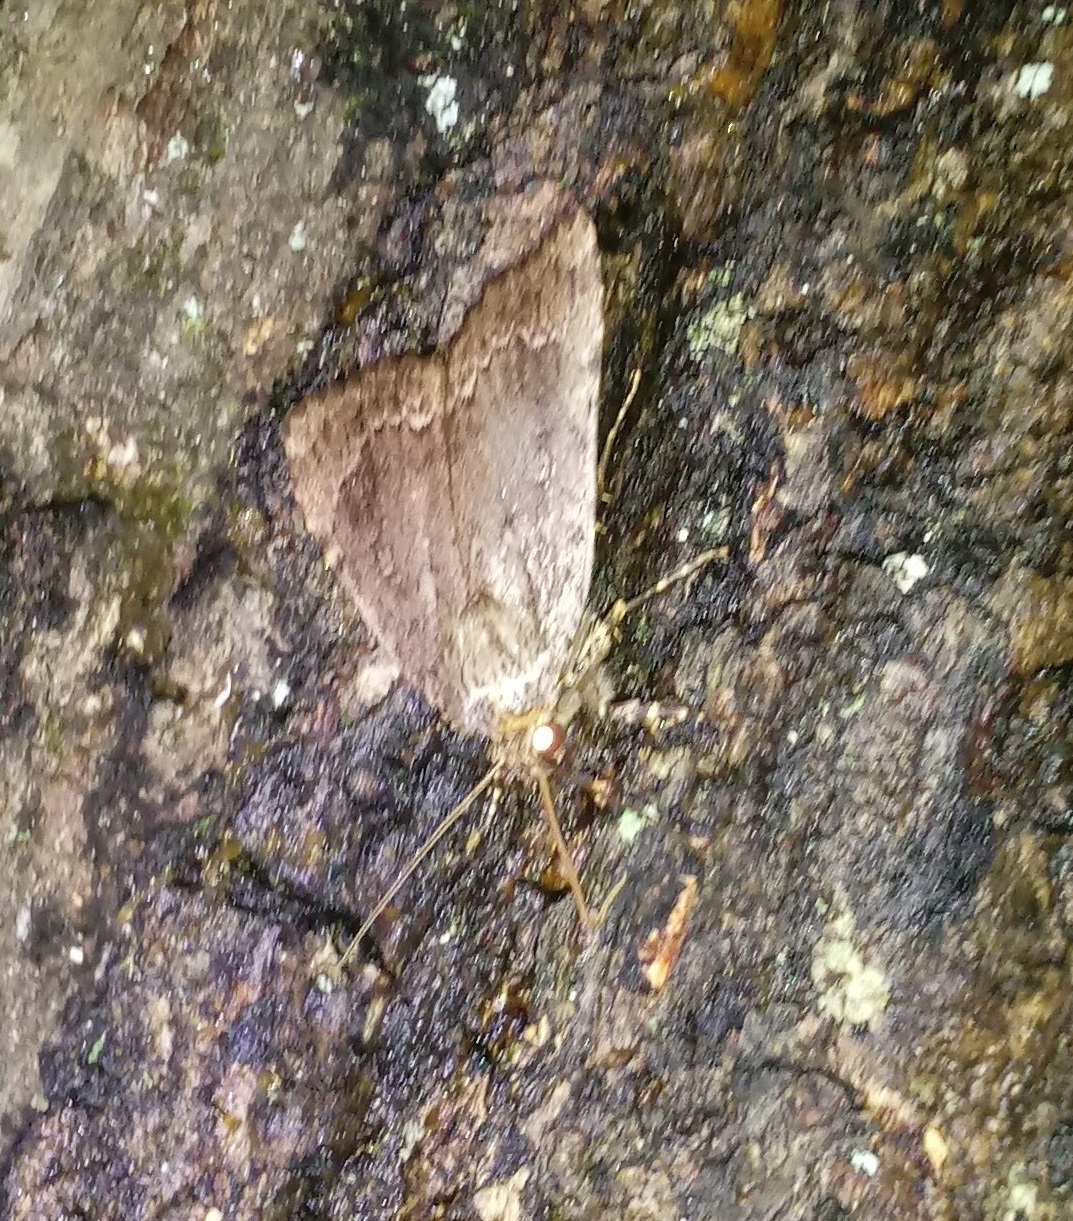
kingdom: Animalia
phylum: Arthropoda
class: Insecta
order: Lepidoptera
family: Noctuidae
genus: Amphipyra
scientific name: Amphipyra pyramidoides
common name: American copper underwing
